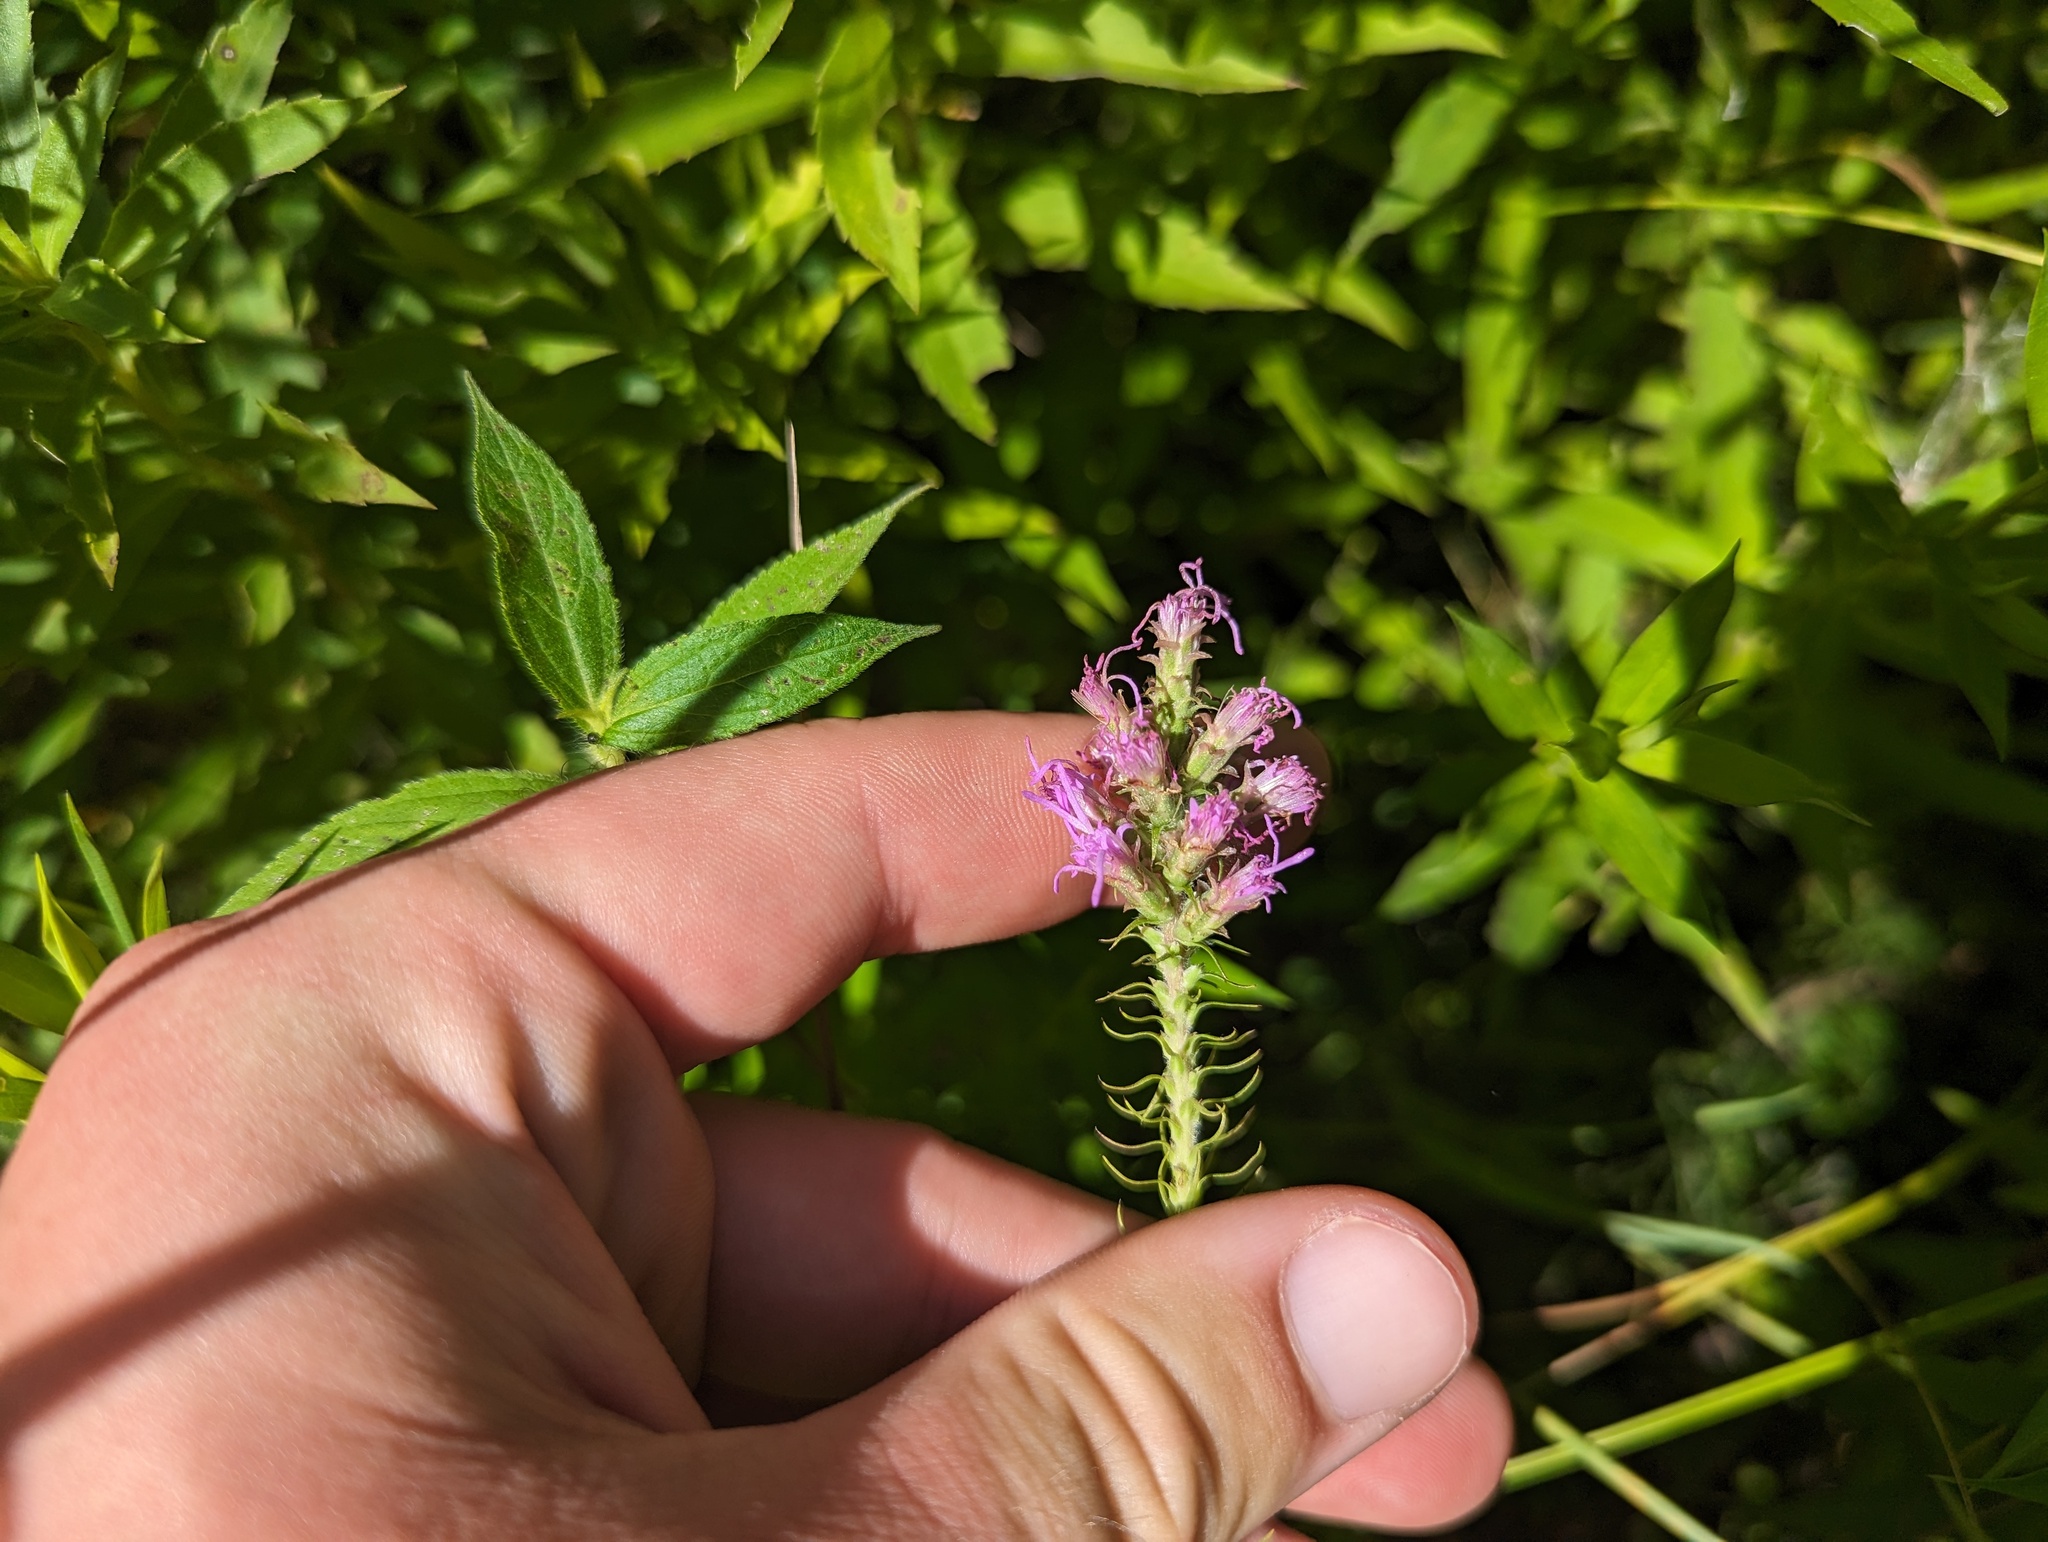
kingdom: Plantae
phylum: Tracheophyta
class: Magnoliopsida
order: Asterales
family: Asteraceae
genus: Liatris
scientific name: Liatris pycnostachya
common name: Cattail gayfeather
